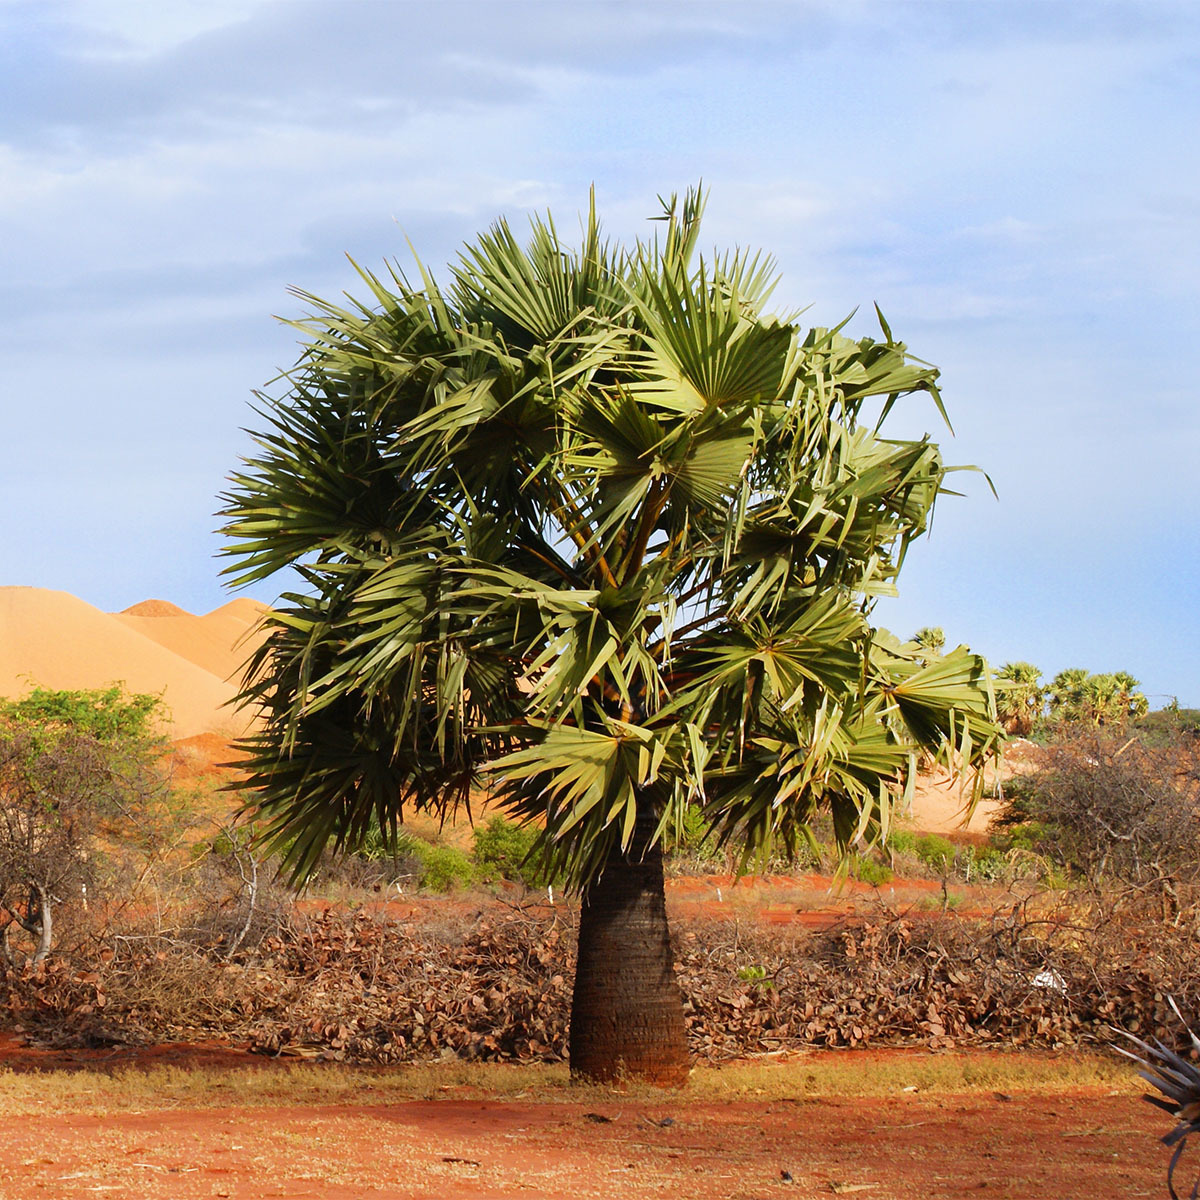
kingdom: Plantae
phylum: Tracheophyta
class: Liliopsida
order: Arecales
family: Arecaceae
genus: Borassus
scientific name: Borassus flabellifer
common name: Palmyra palm
